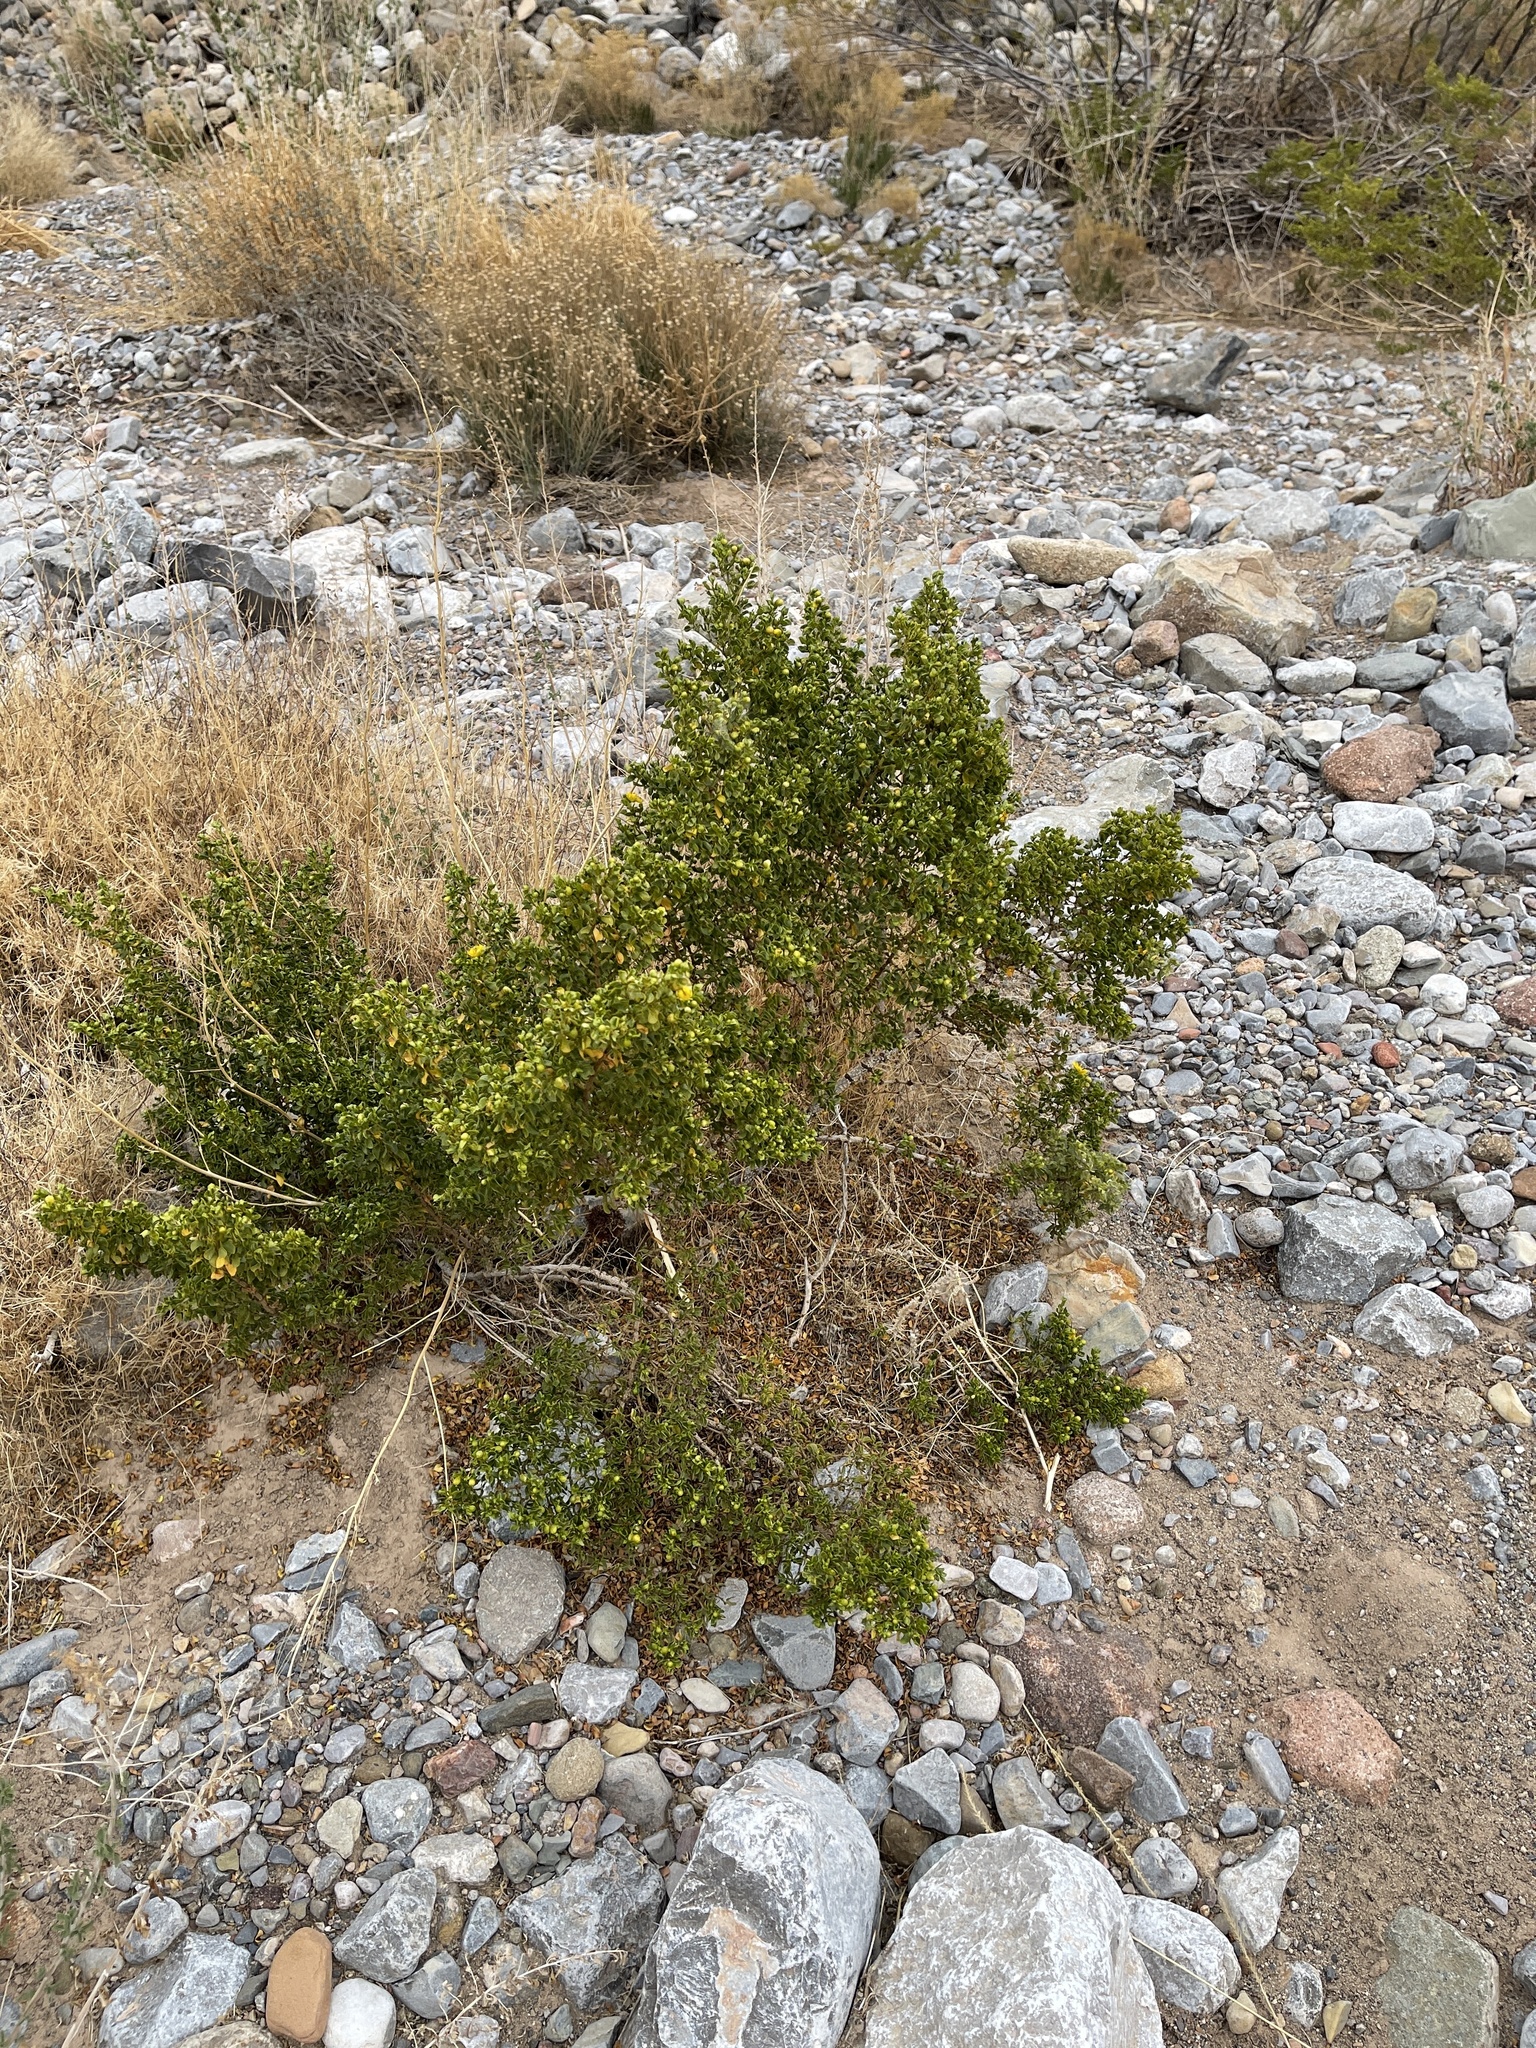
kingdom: Plantae
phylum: Tracheophyta
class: Magnoliopsida
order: Zygophyllales
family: Zygophyllaceae
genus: Larrea
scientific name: Larrea tridentata
